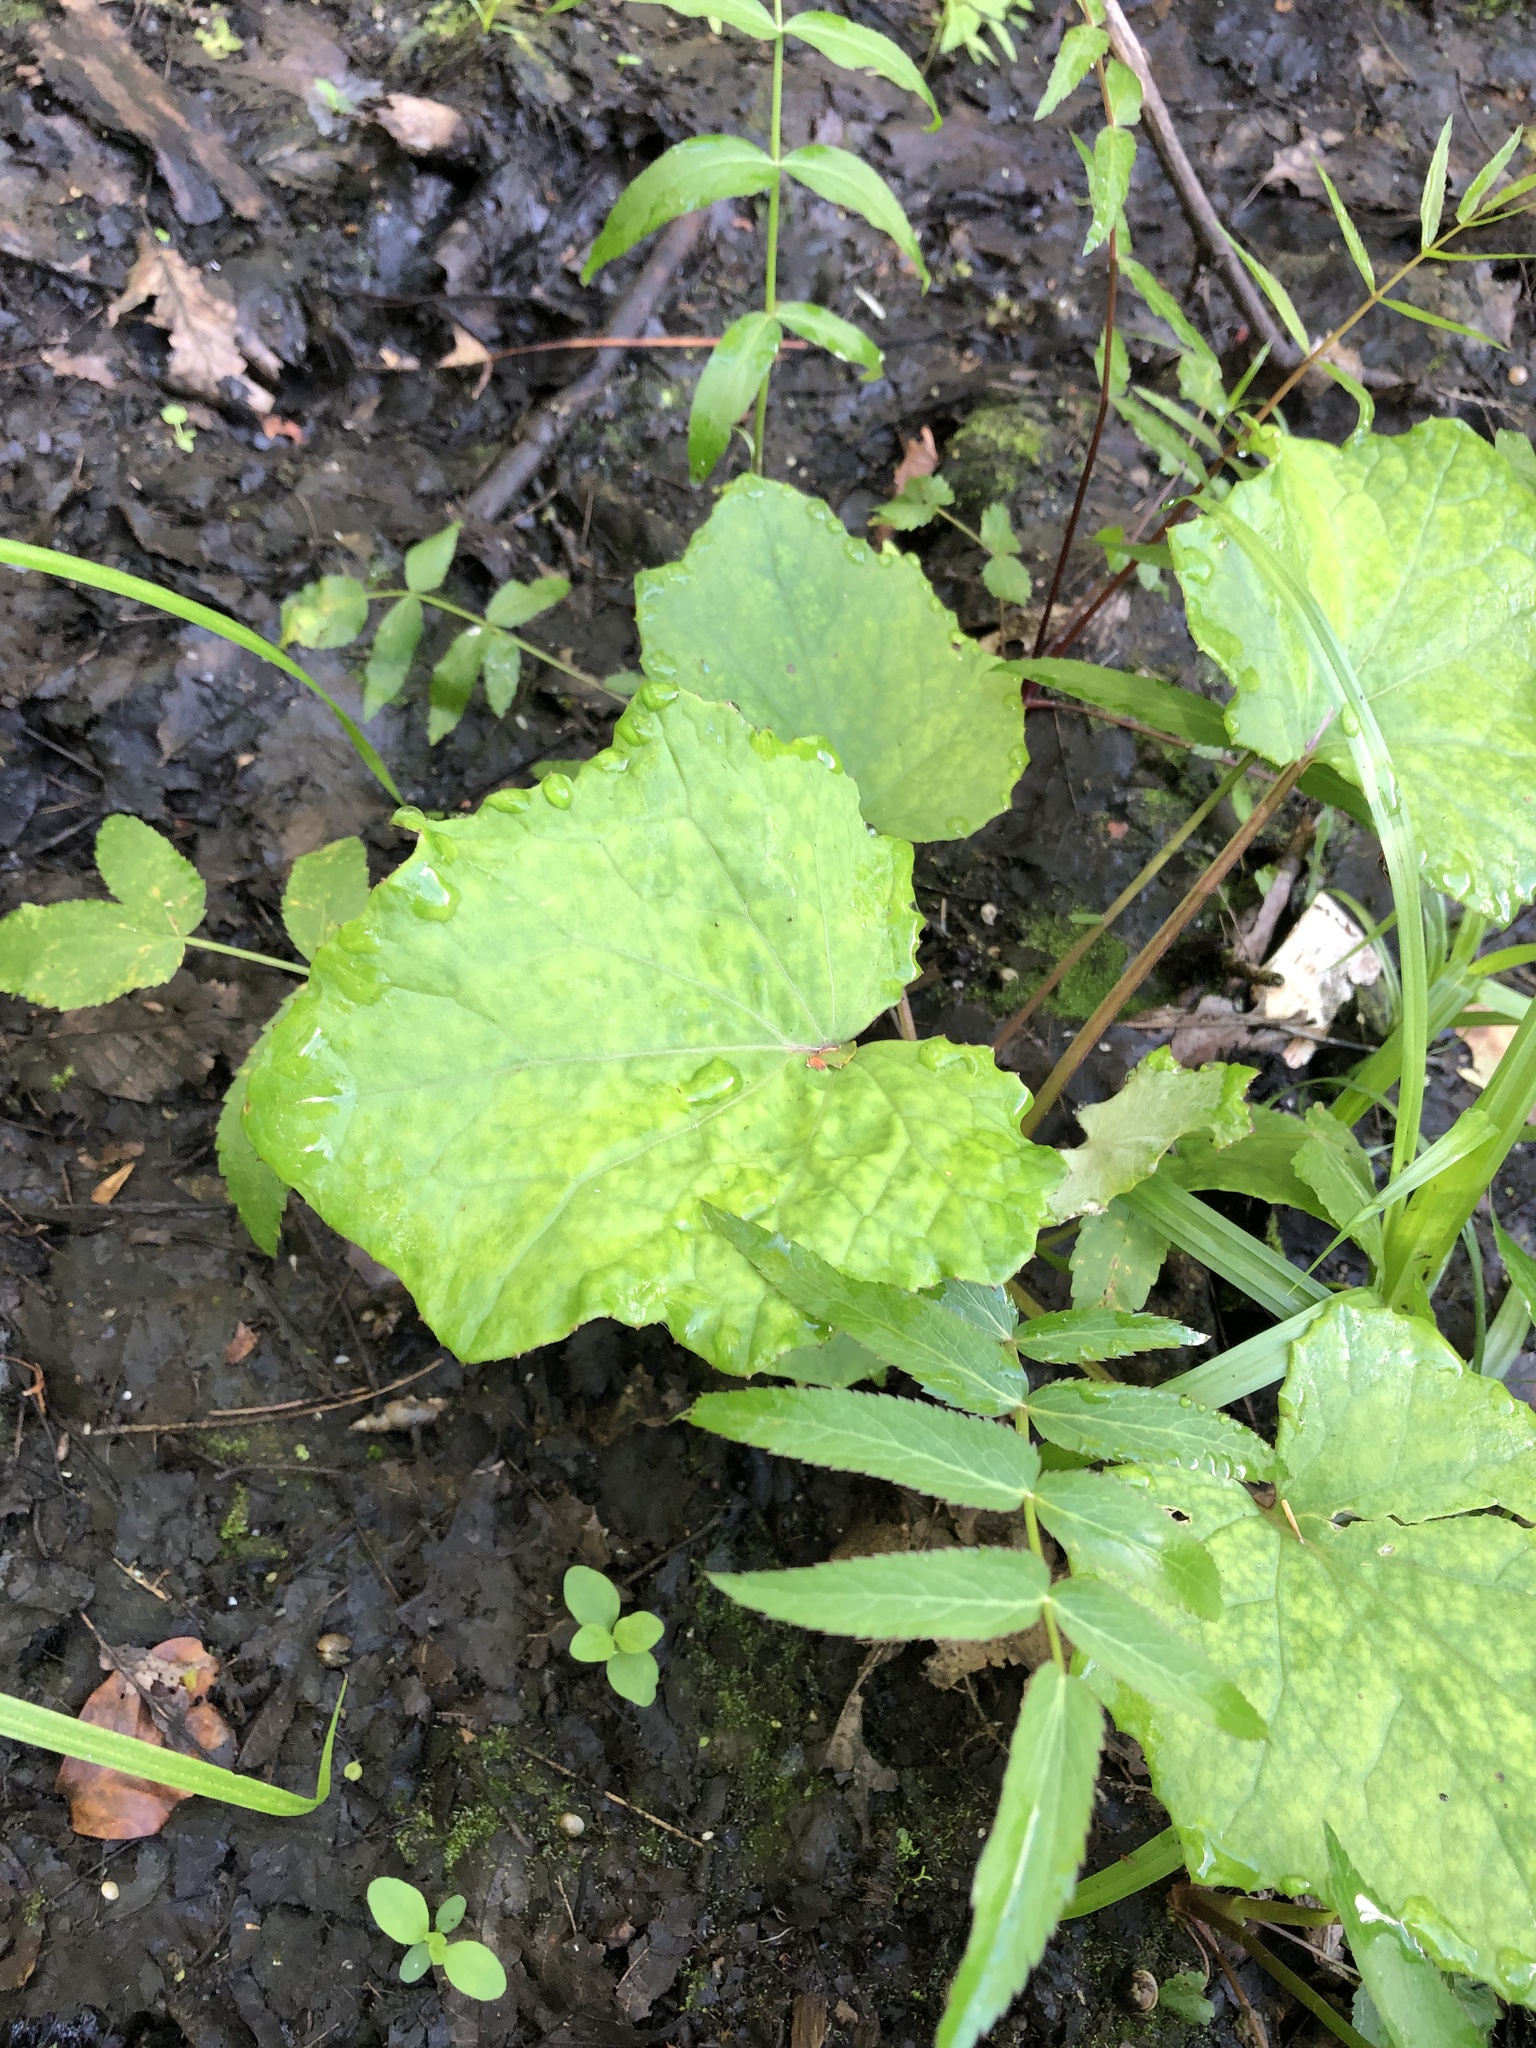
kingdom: Plantae
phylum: Tracheophyta
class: Magnoliopsida
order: Asterales
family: Asteraceae
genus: Tussilago
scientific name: Tussilago farfara
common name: Coltsfoot
